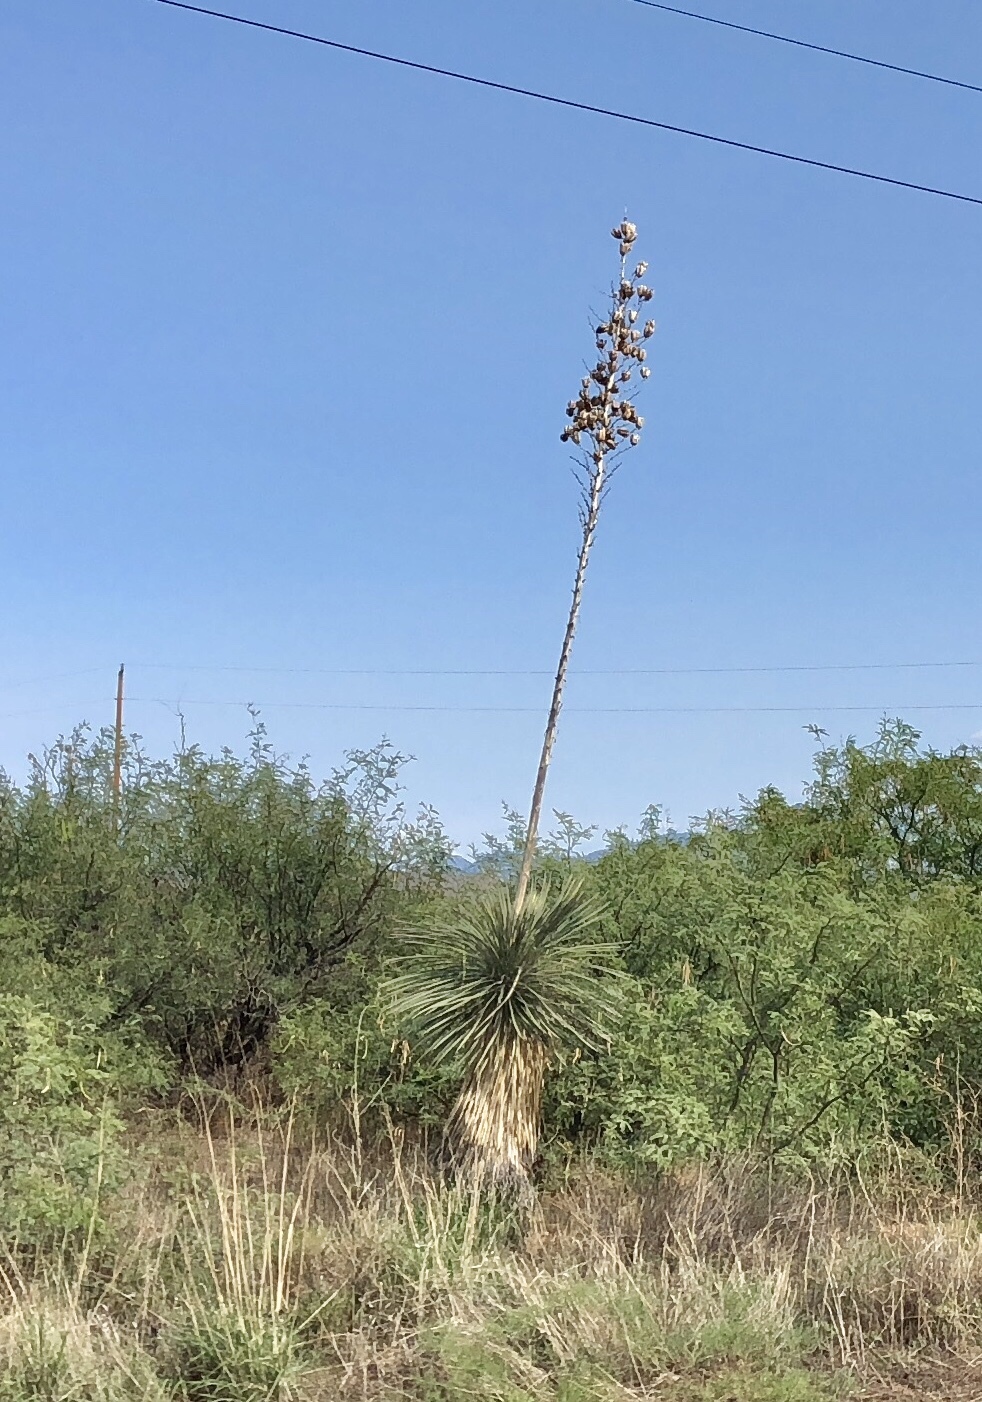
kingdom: Plantae
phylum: Tracheophyta
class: Liliopsida
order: Asparagales
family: Asparagaceae
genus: Yucca
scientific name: Yucca elata
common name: Palmella
